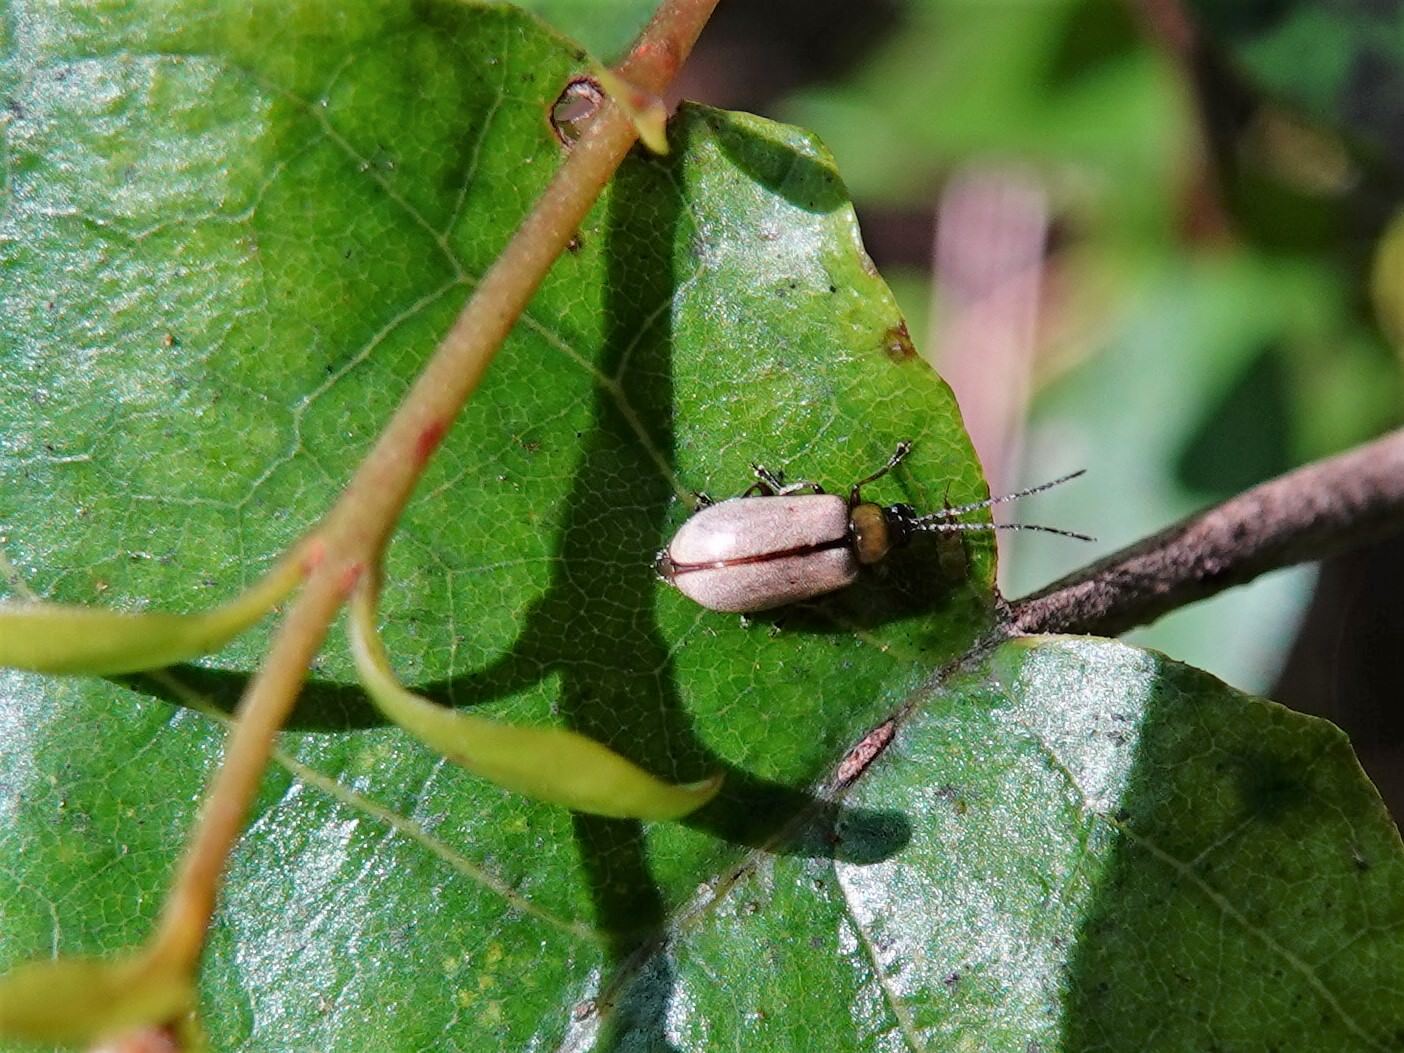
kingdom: Animalia
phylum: Arthropoda
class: Insecta
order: Coleoptera
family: Chrysomelidae
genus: Adoxia
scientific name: Adoxia
